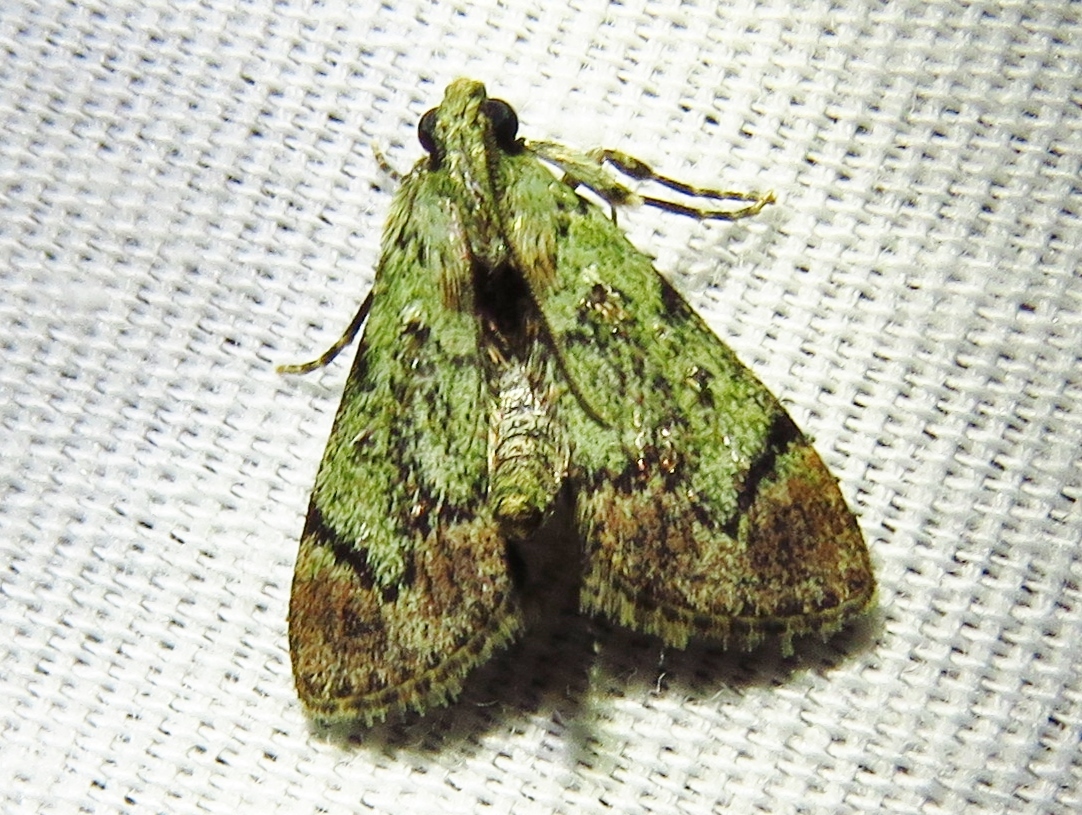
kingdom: Animalia
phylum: Arthropoda
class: Insecta
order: Lepidoptera
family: Pyralidae
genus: Epipaschia
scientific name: Epipaschia superatalis
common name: Dimorphic macalla moth
